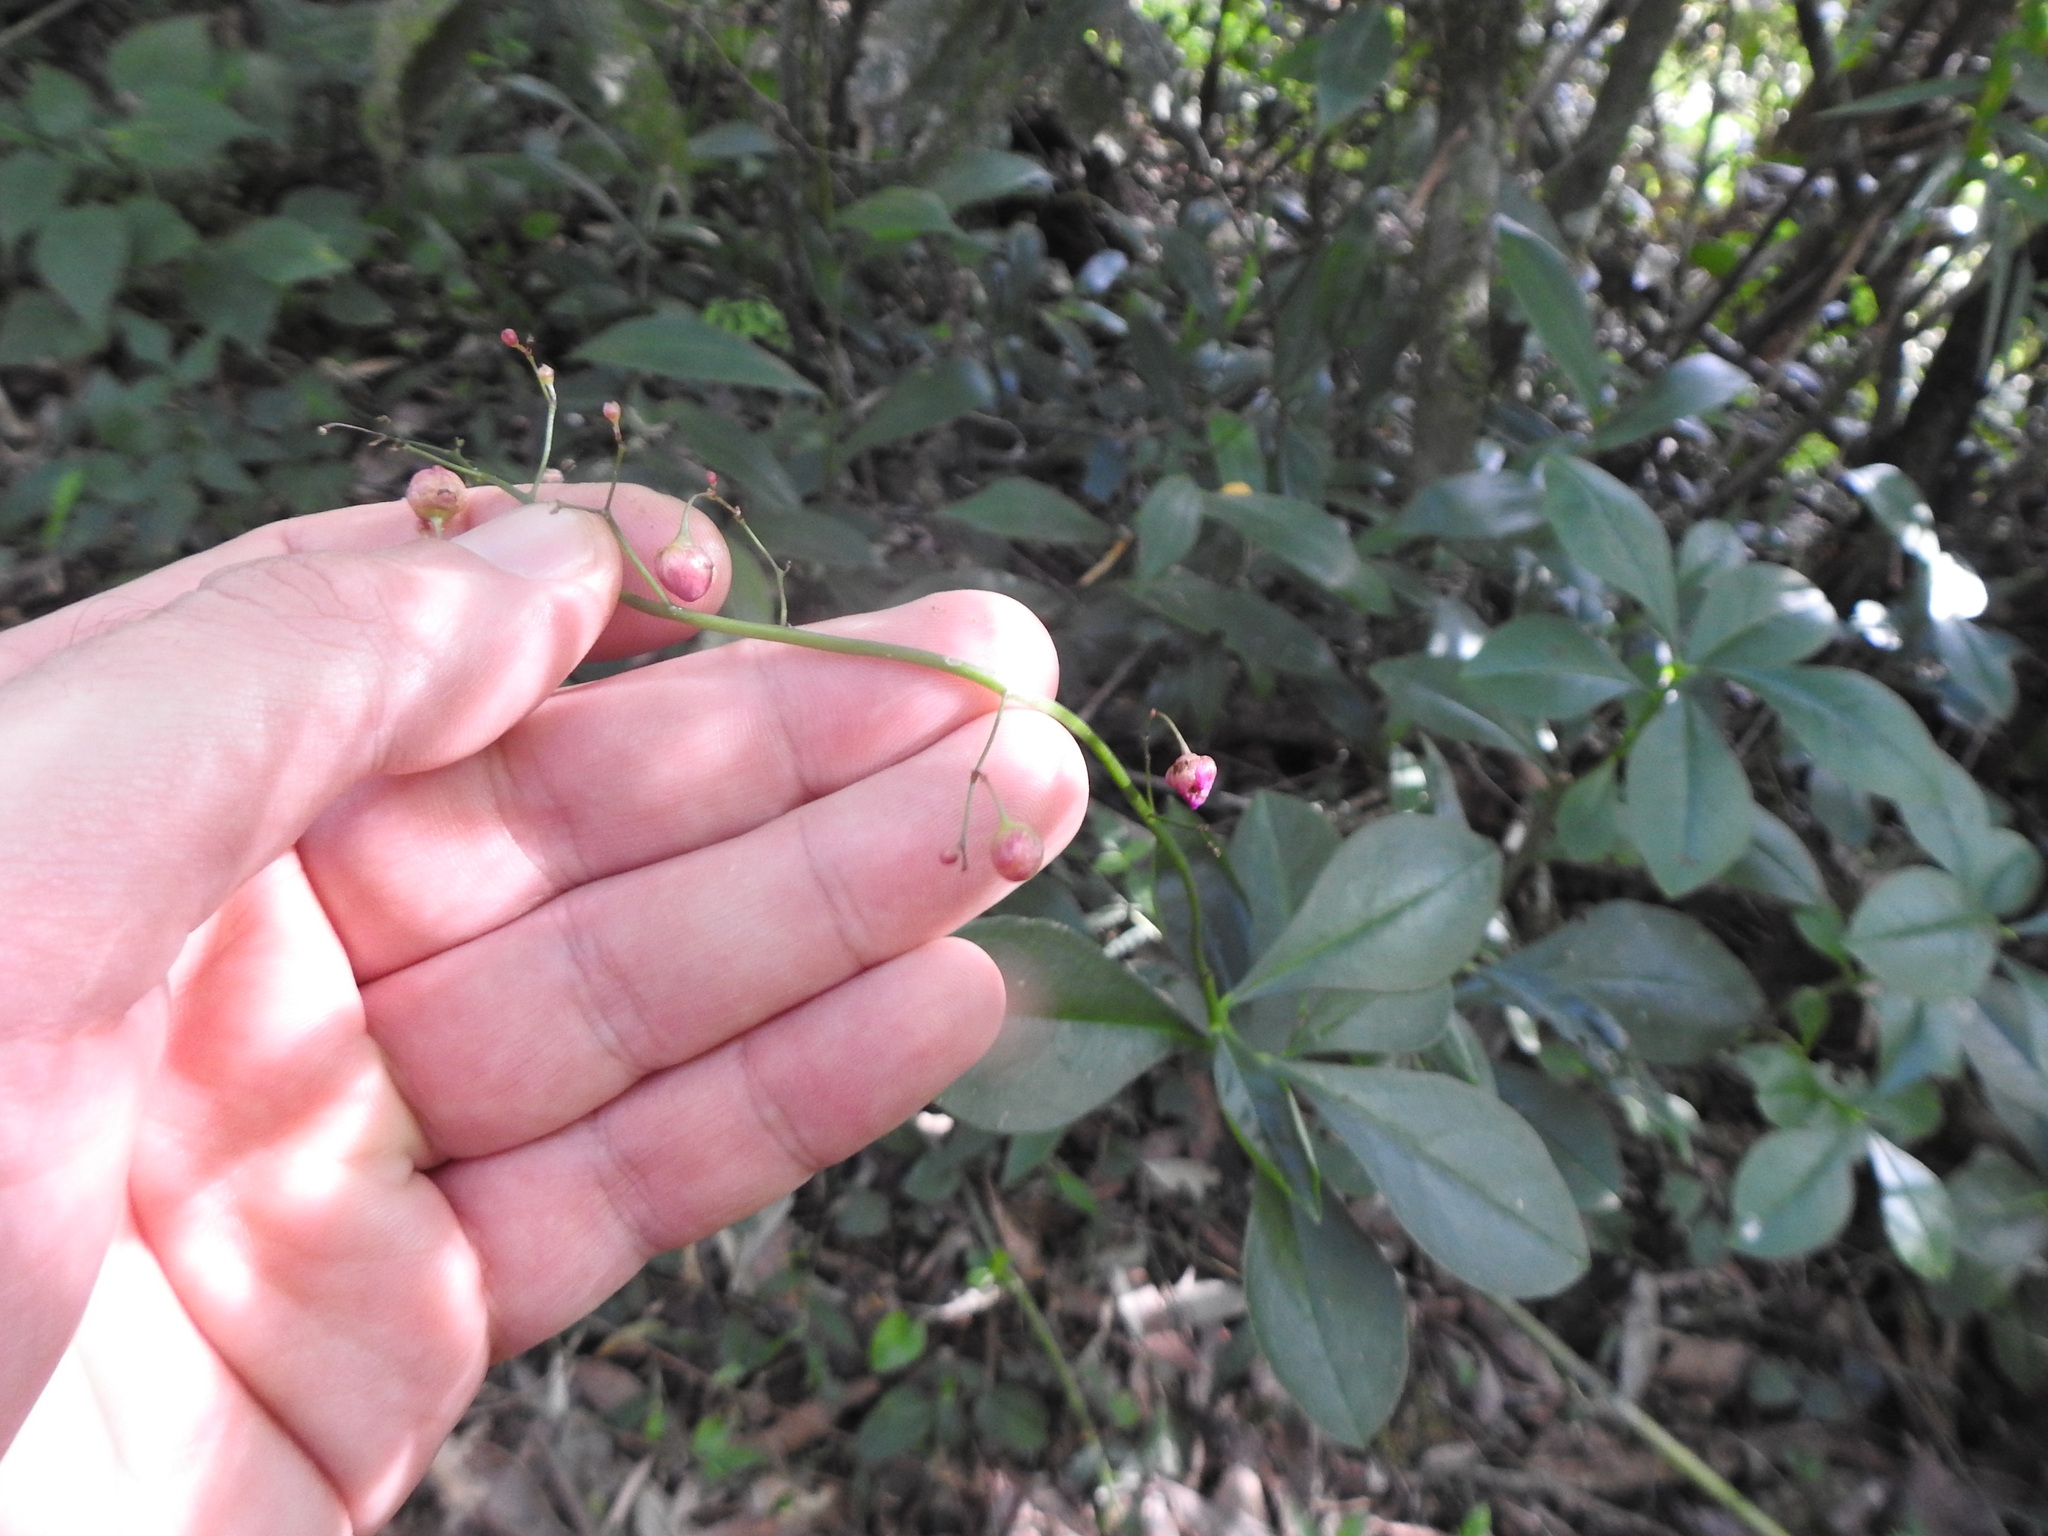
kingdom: Plantae
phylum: Tracheophyta
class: Magnoliopsida
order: Caryophyllales
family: Talinaceae
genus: Talinum
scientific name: Talinum paniculatum
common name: Jewels of opar
